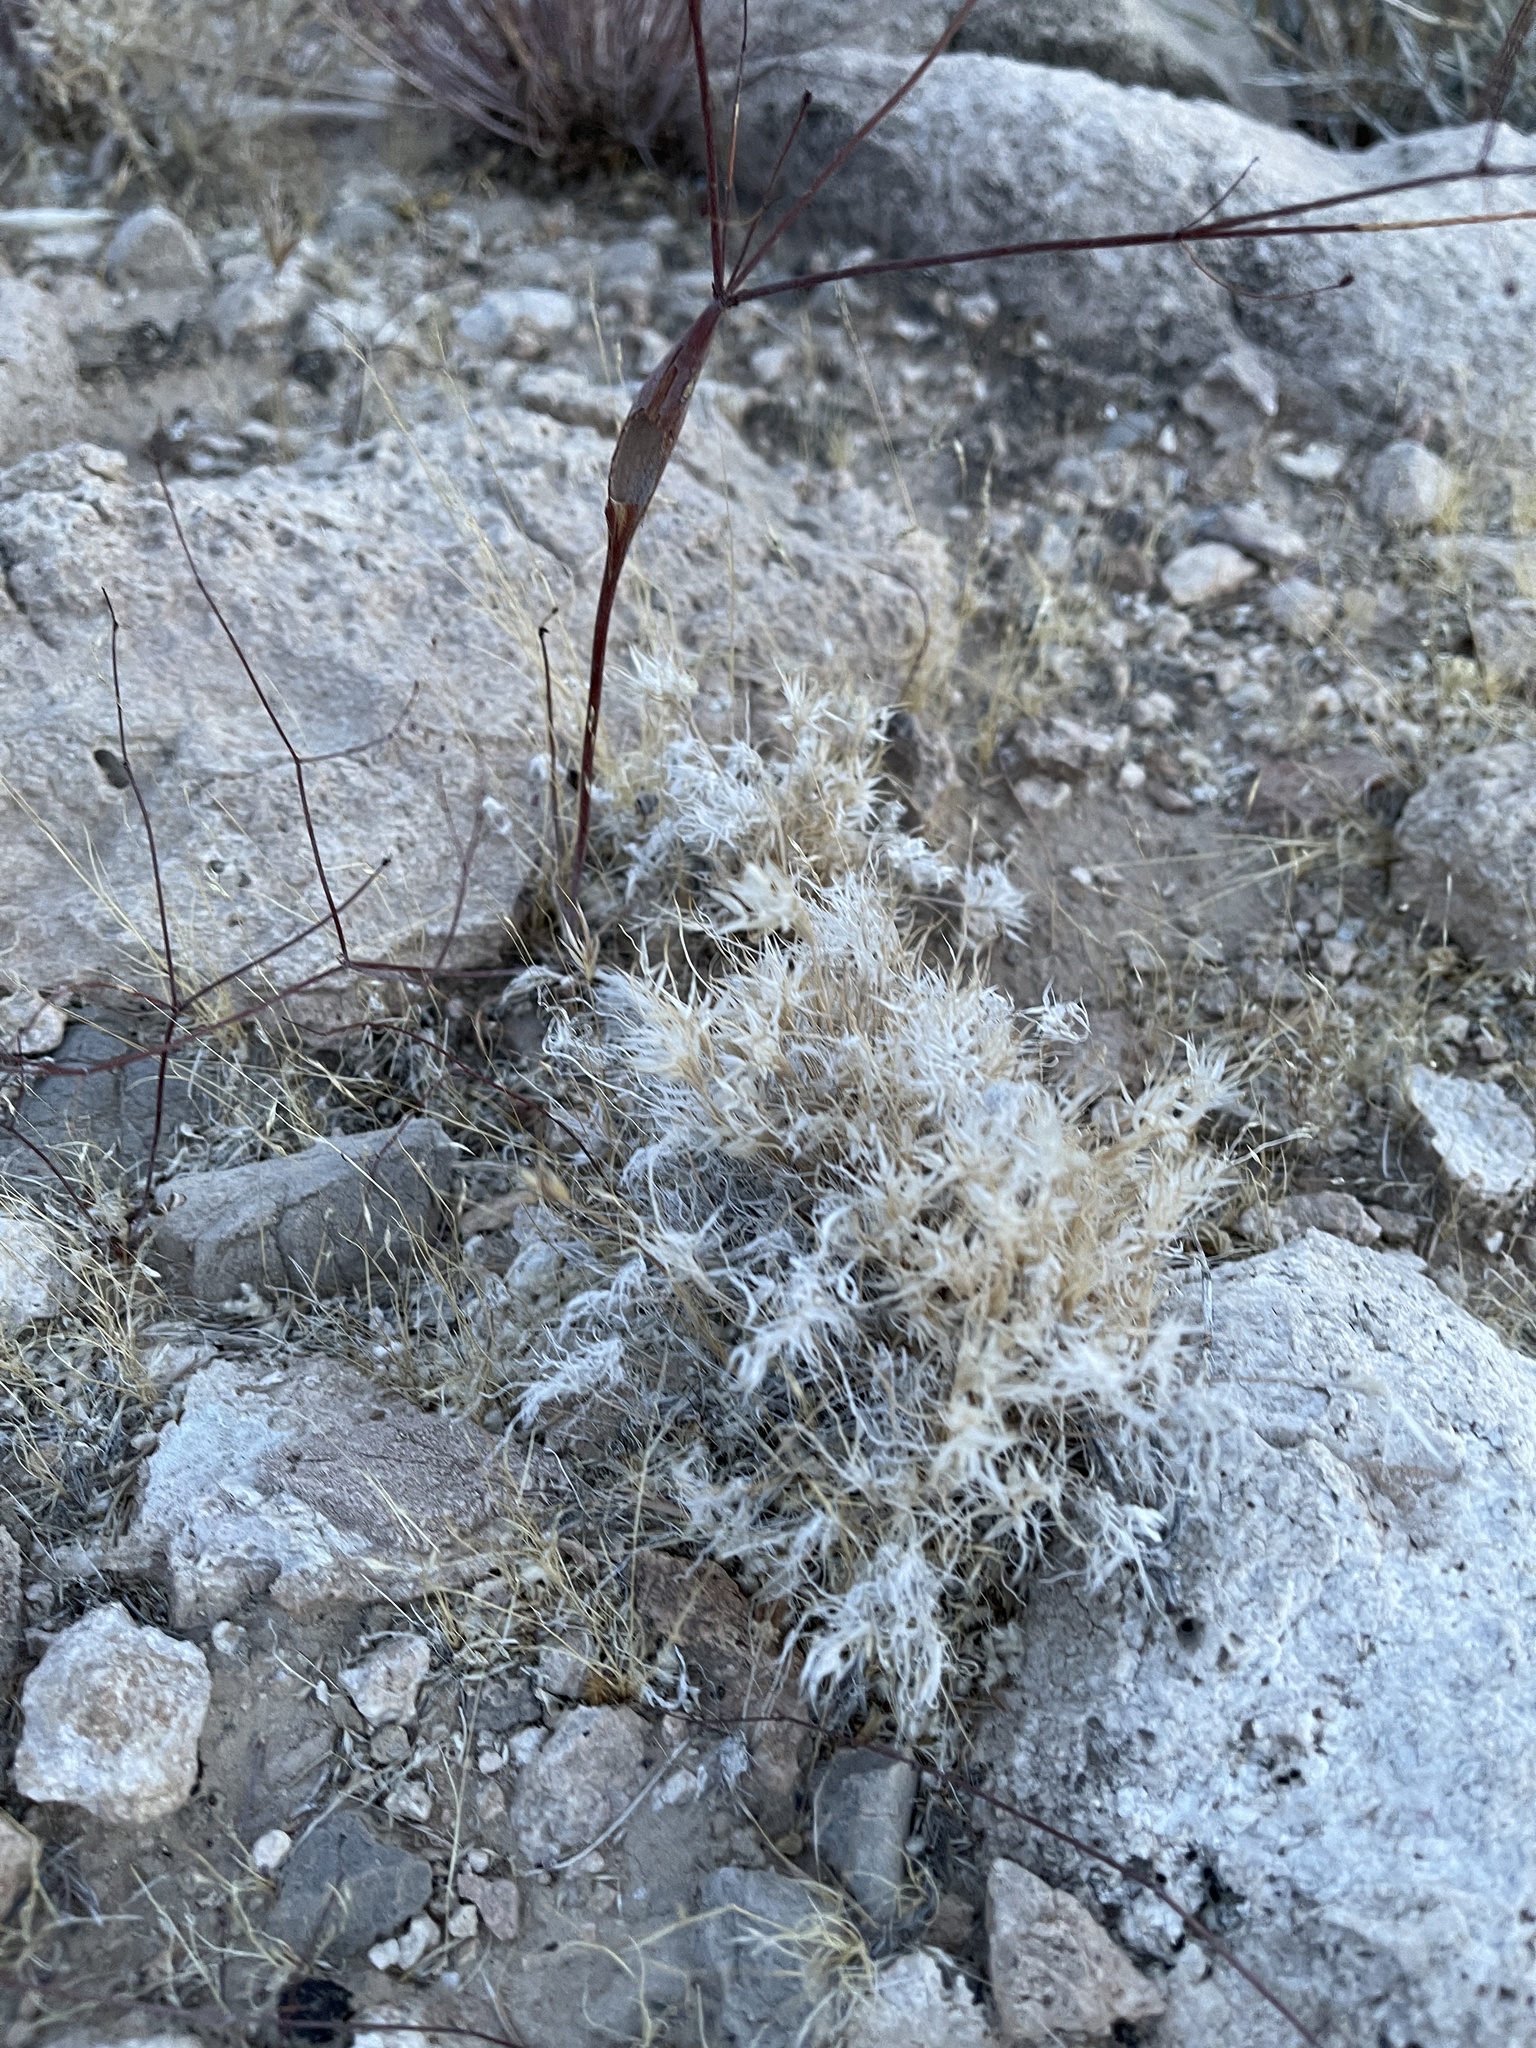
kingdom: Plantae
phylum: Tracheophyta
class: Liliopsida
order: Poales
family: Poaceae
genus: Dasyochloa
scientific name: Dasyochloa pulchella
